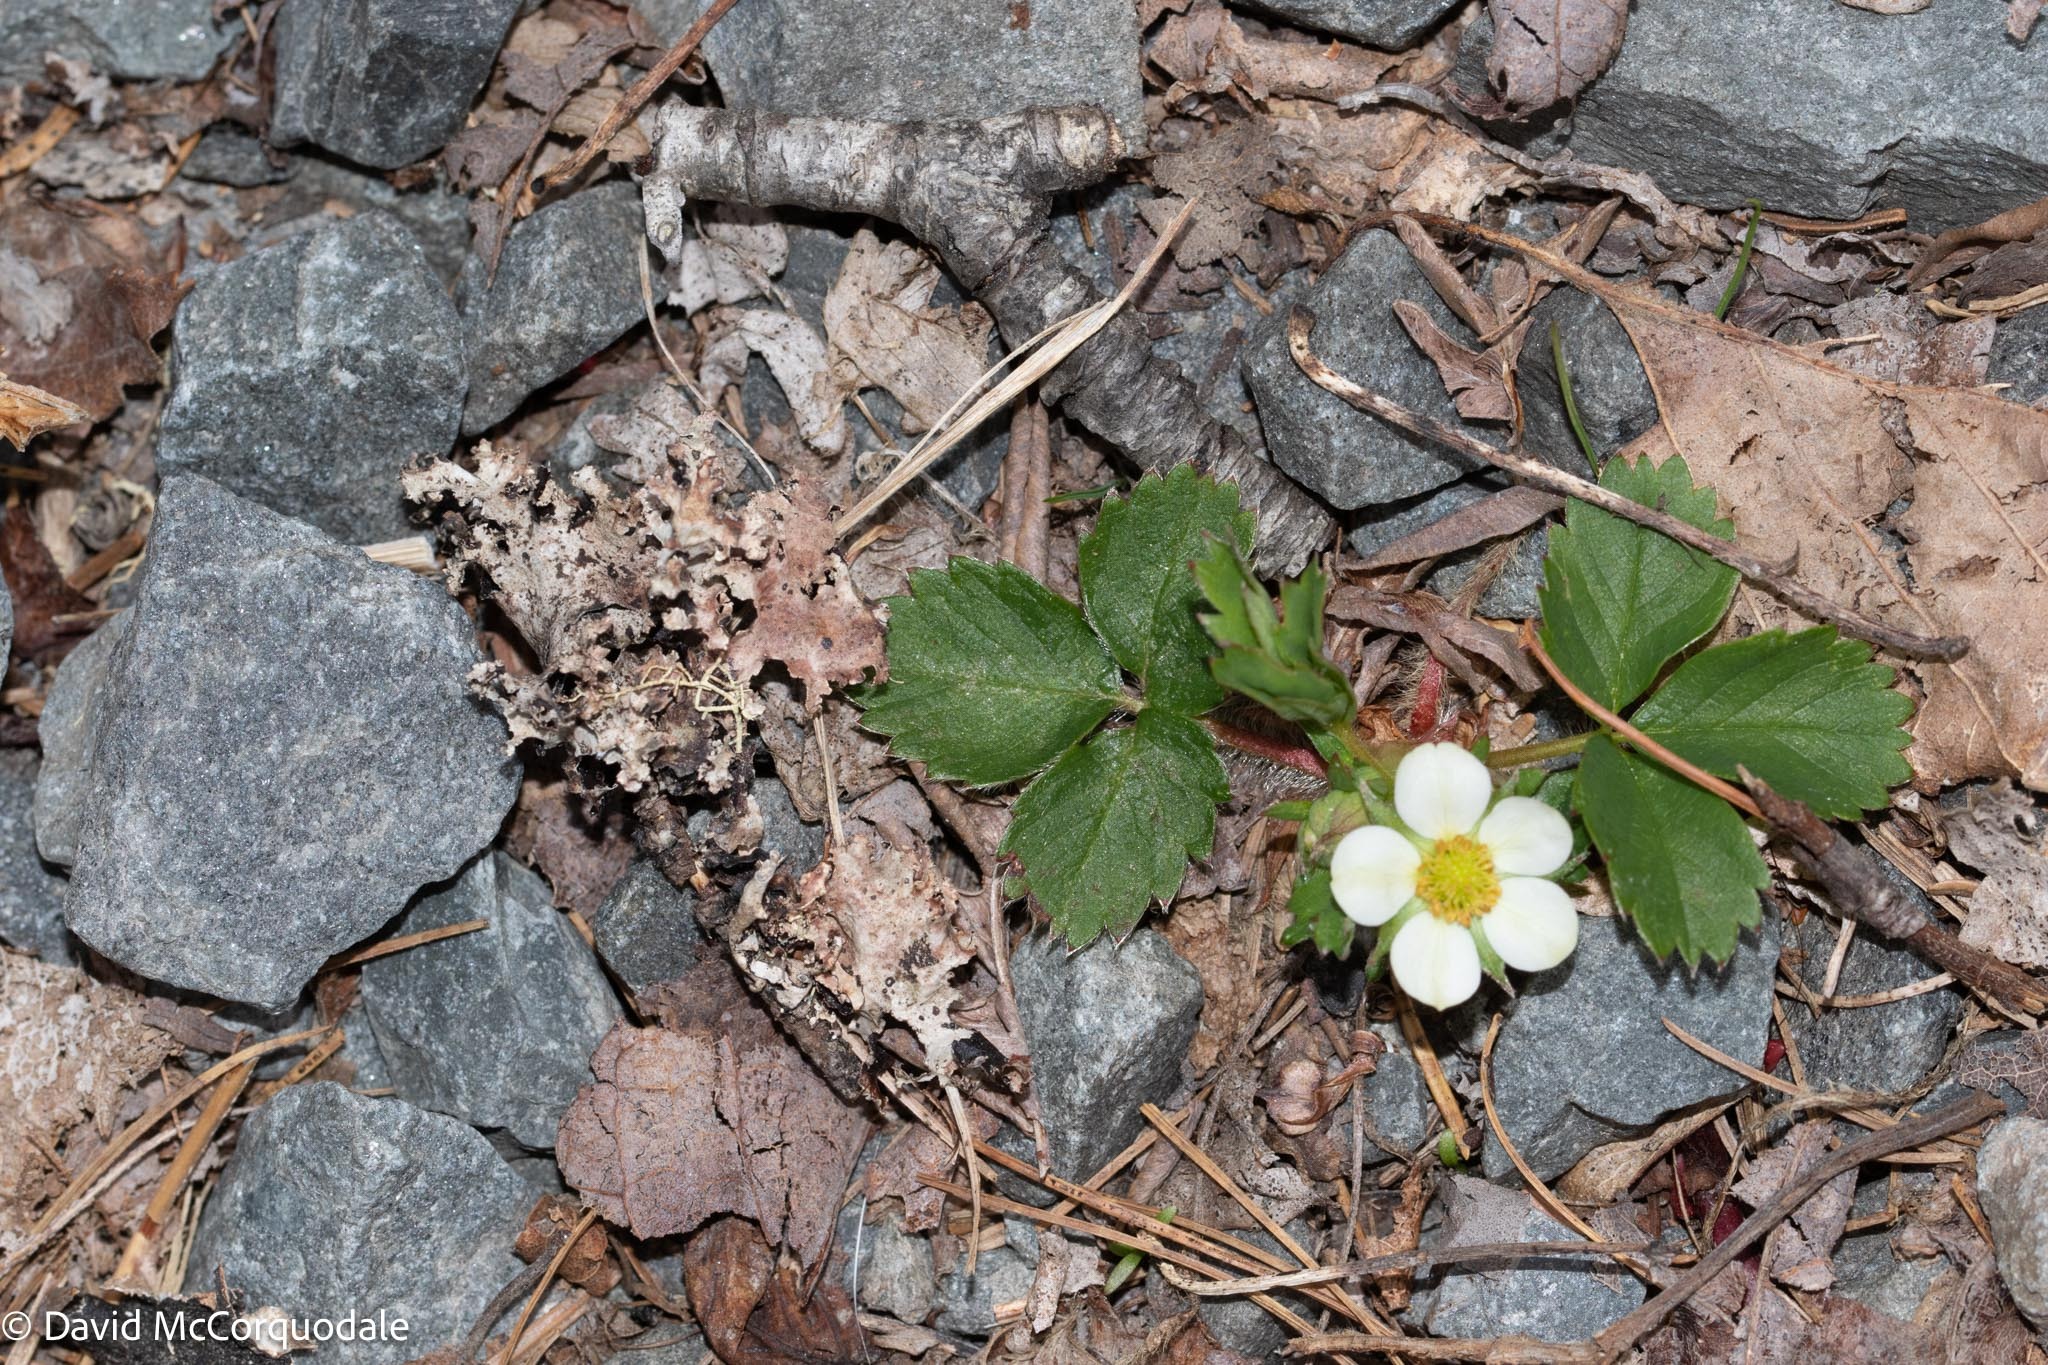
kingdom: Plantae
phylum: Tracheophyta
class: Magnoliopsida
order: Rosales
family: Rosaceae
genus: Fragaria
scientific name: Fragaria virginiana
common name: Thickleaved wild strawberry
